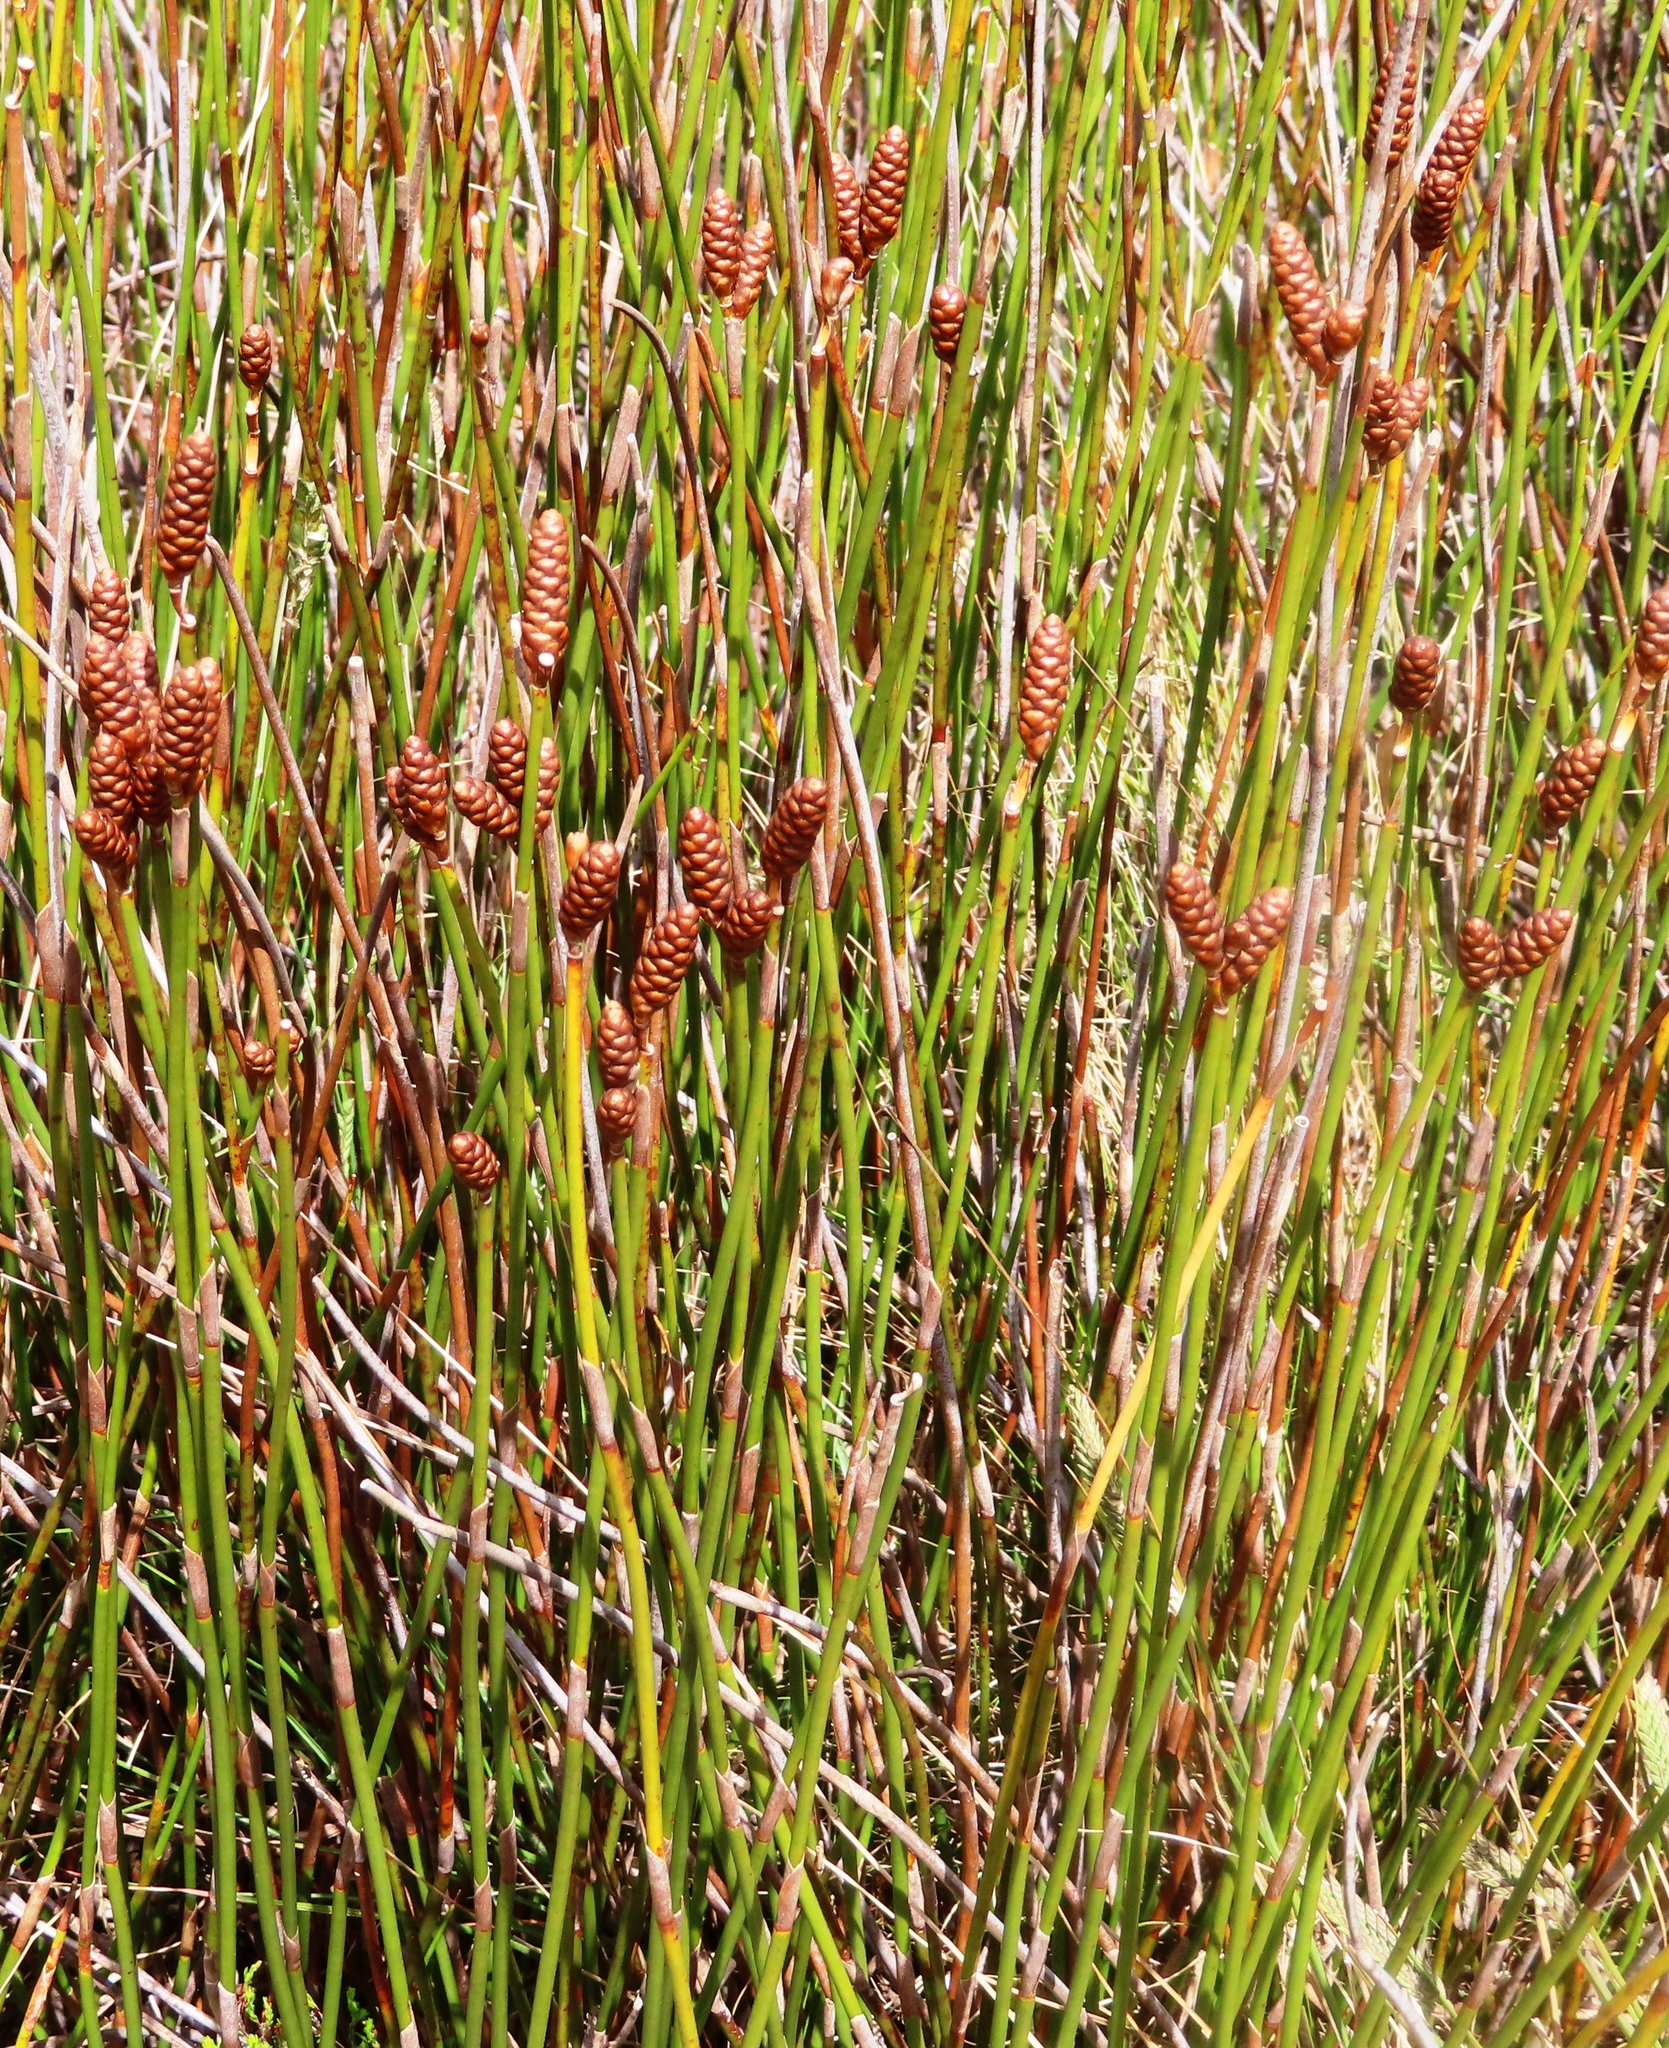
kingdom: Plantae
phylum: Tracheophyta
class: Liliopsida
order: Poales
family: Restionaceae
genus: Nevillea
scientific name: Nevillea obtusissimus
